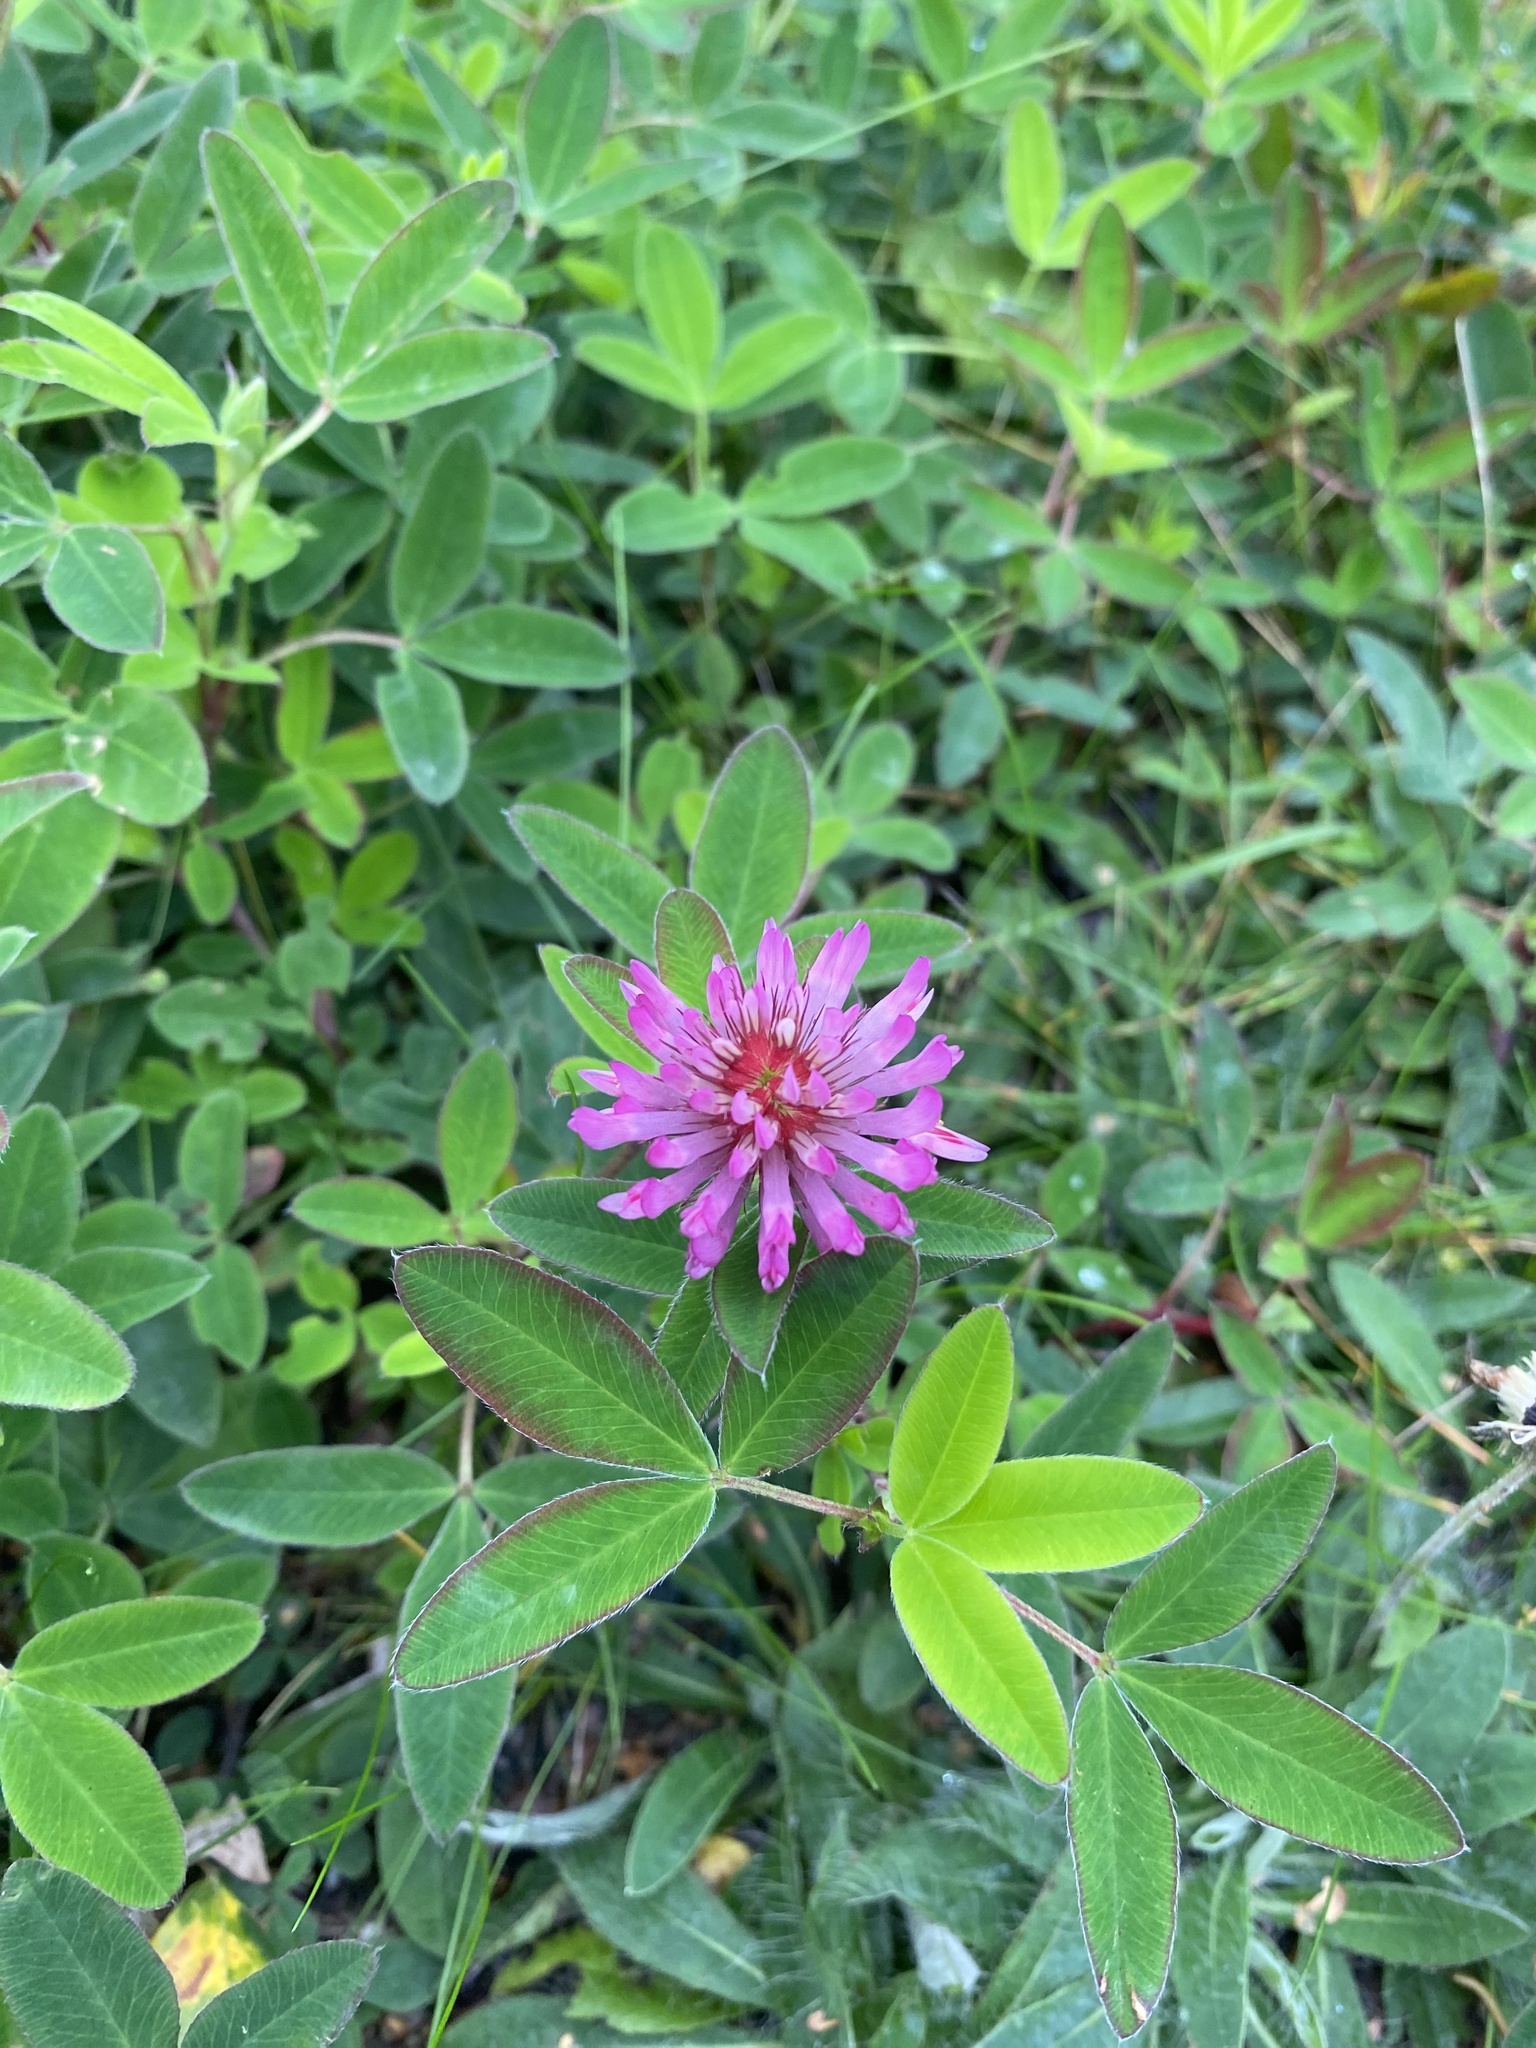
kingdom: Plantae
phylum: Tracheophyta
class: Magnoliopsida
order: Fabales
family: Fabaceae
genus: Trifolium
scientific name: Trifolium medium
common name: Zigzag clover
